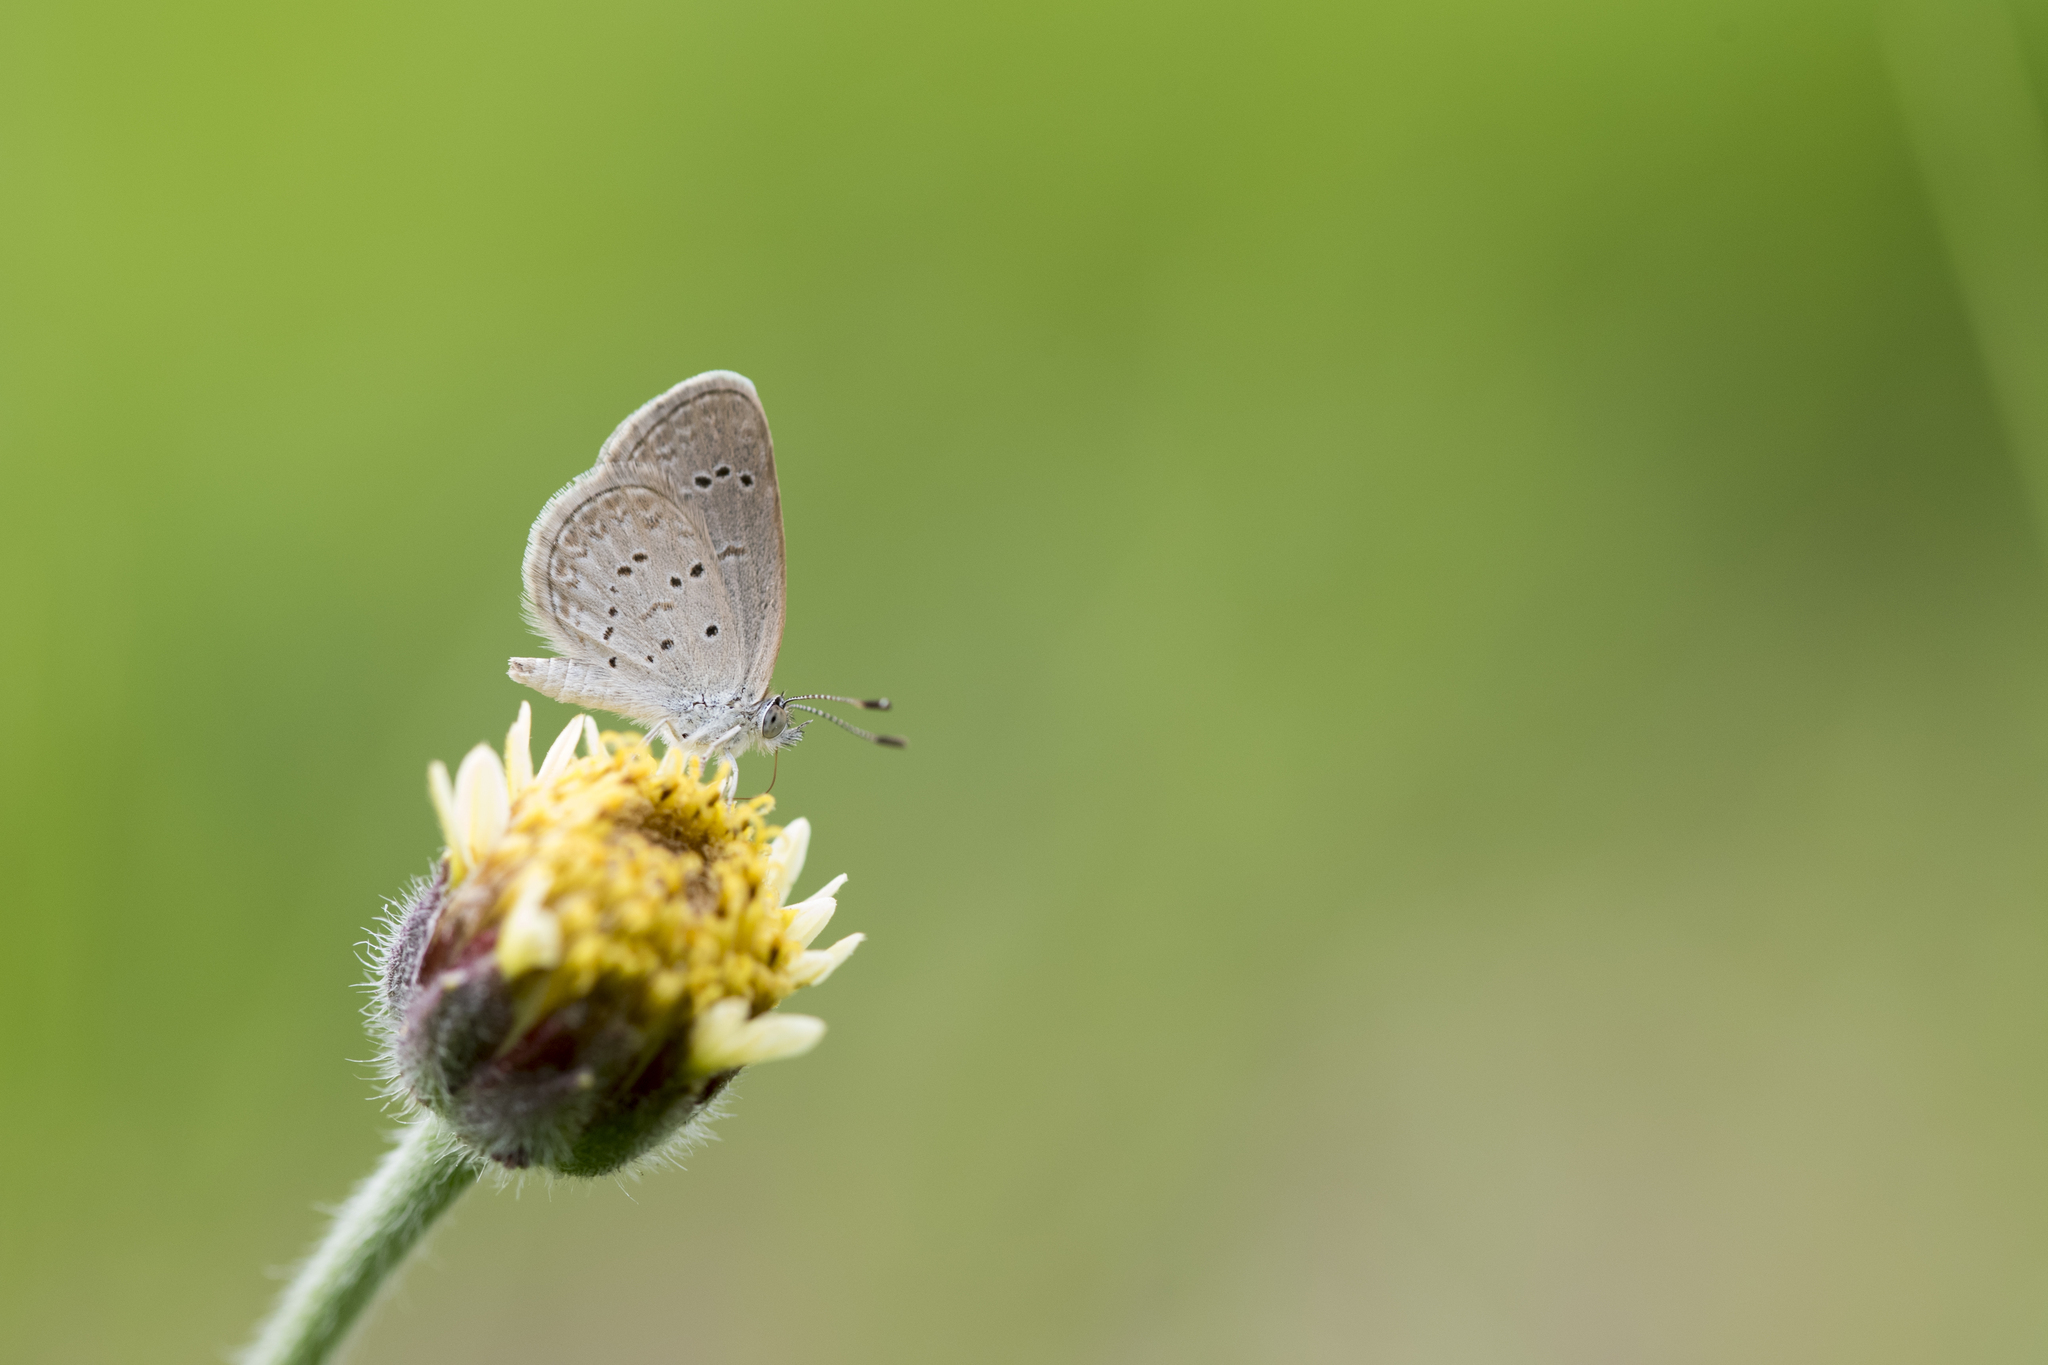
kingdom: Animalia
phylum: Arthropoda
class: Insecta
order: Lepidoptera
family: Lycaenidae
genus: Zizina
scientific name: Zizina otis
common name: Lesser grass blue
